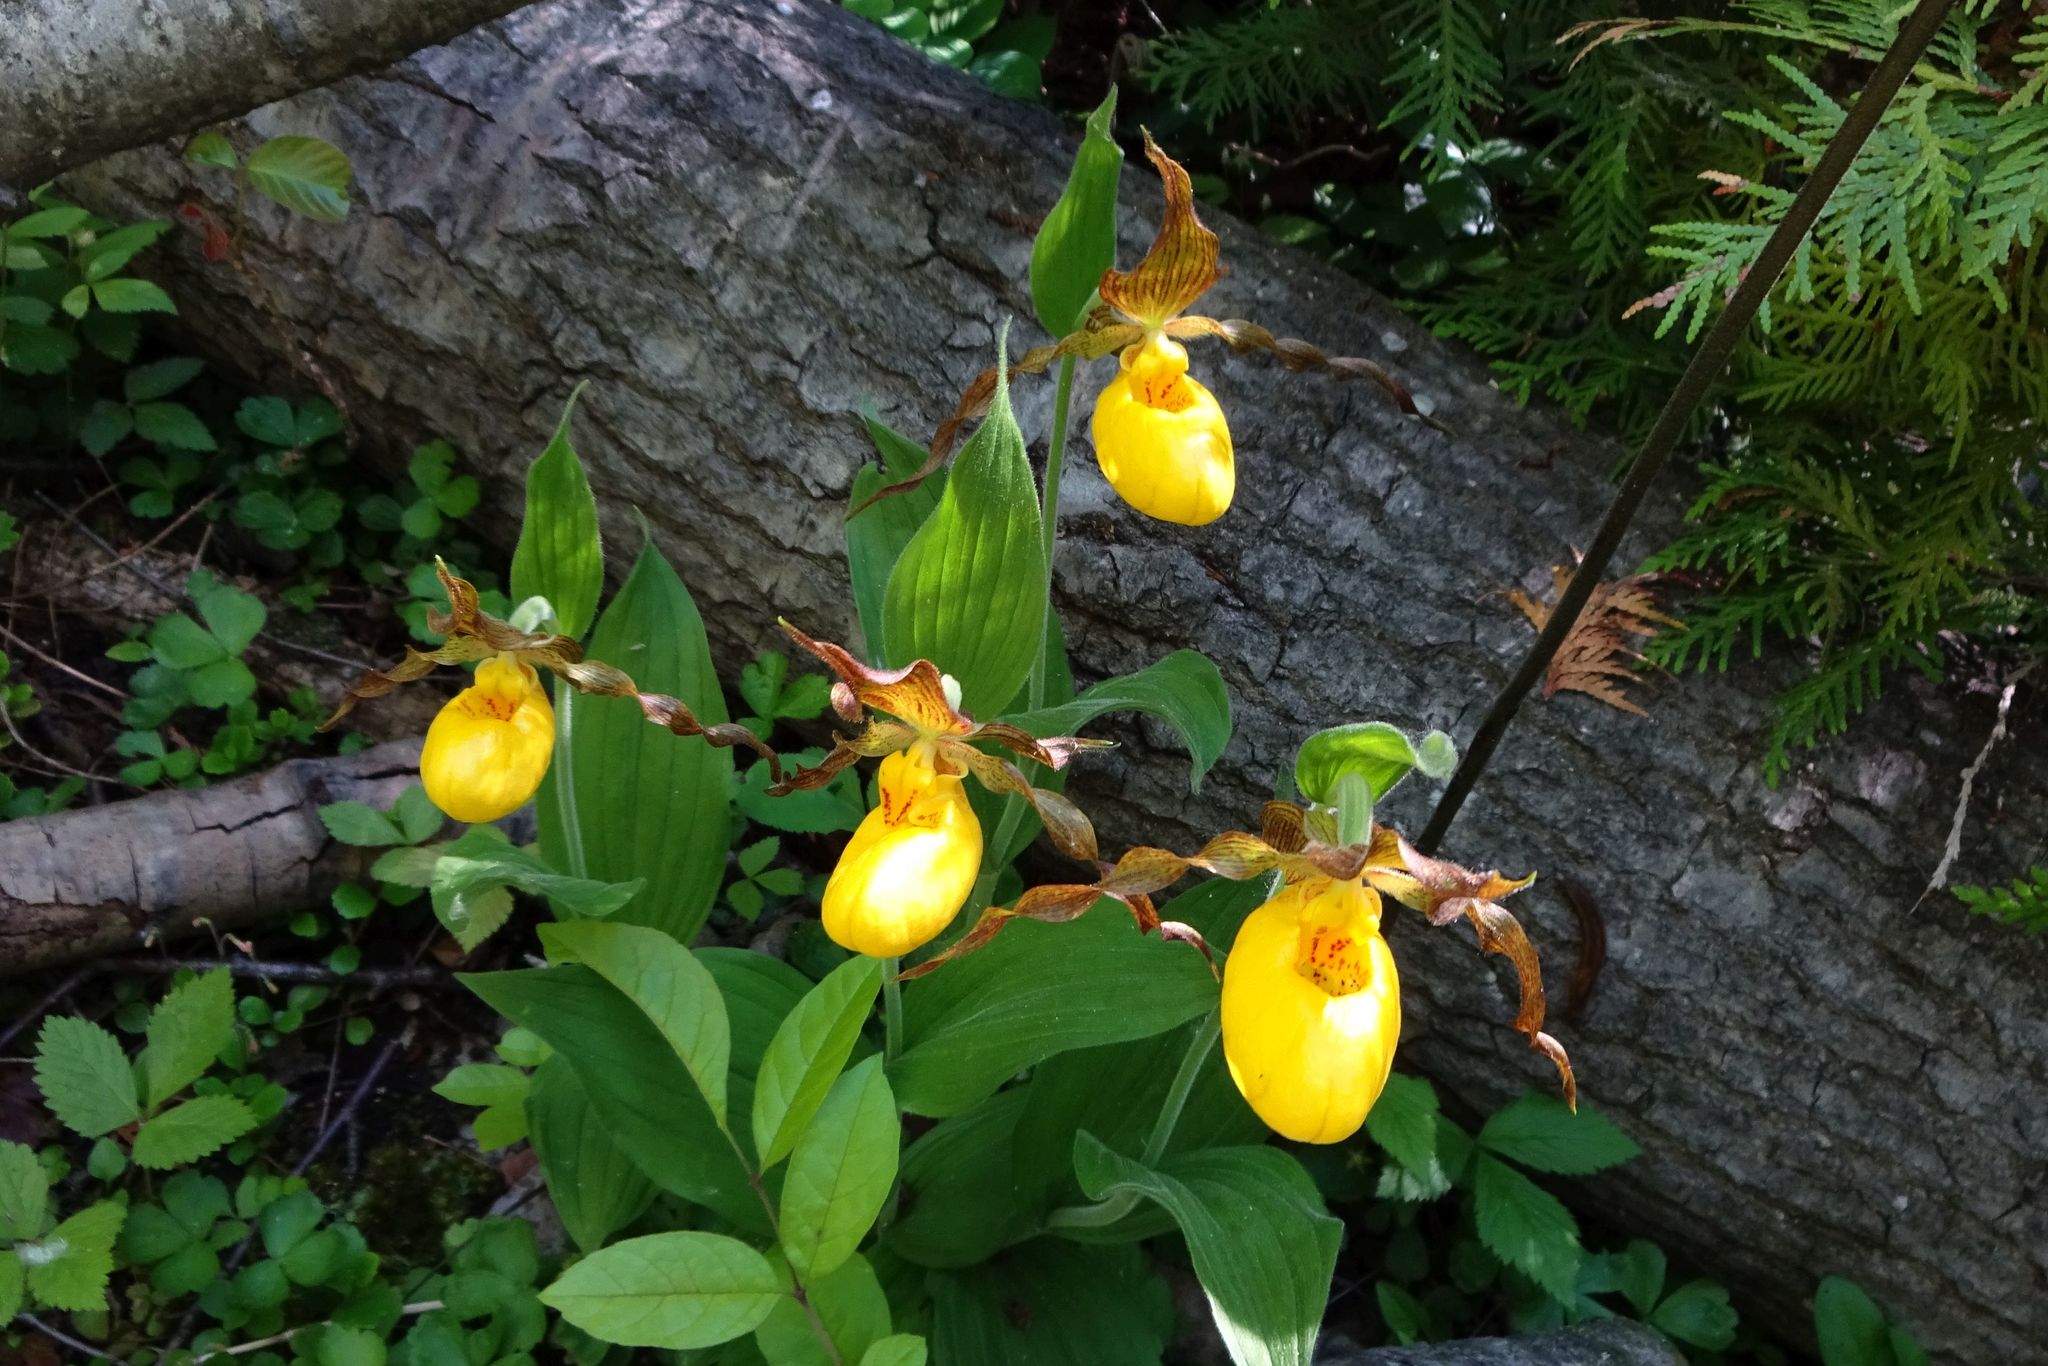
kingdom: Plantae
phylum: Tracheophyta
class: Liliopsida
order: Asparagales
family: Orchidaceae
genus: Cypripedium
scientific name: Cypripedium parviflorum
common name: American yellow lady's-slipper
